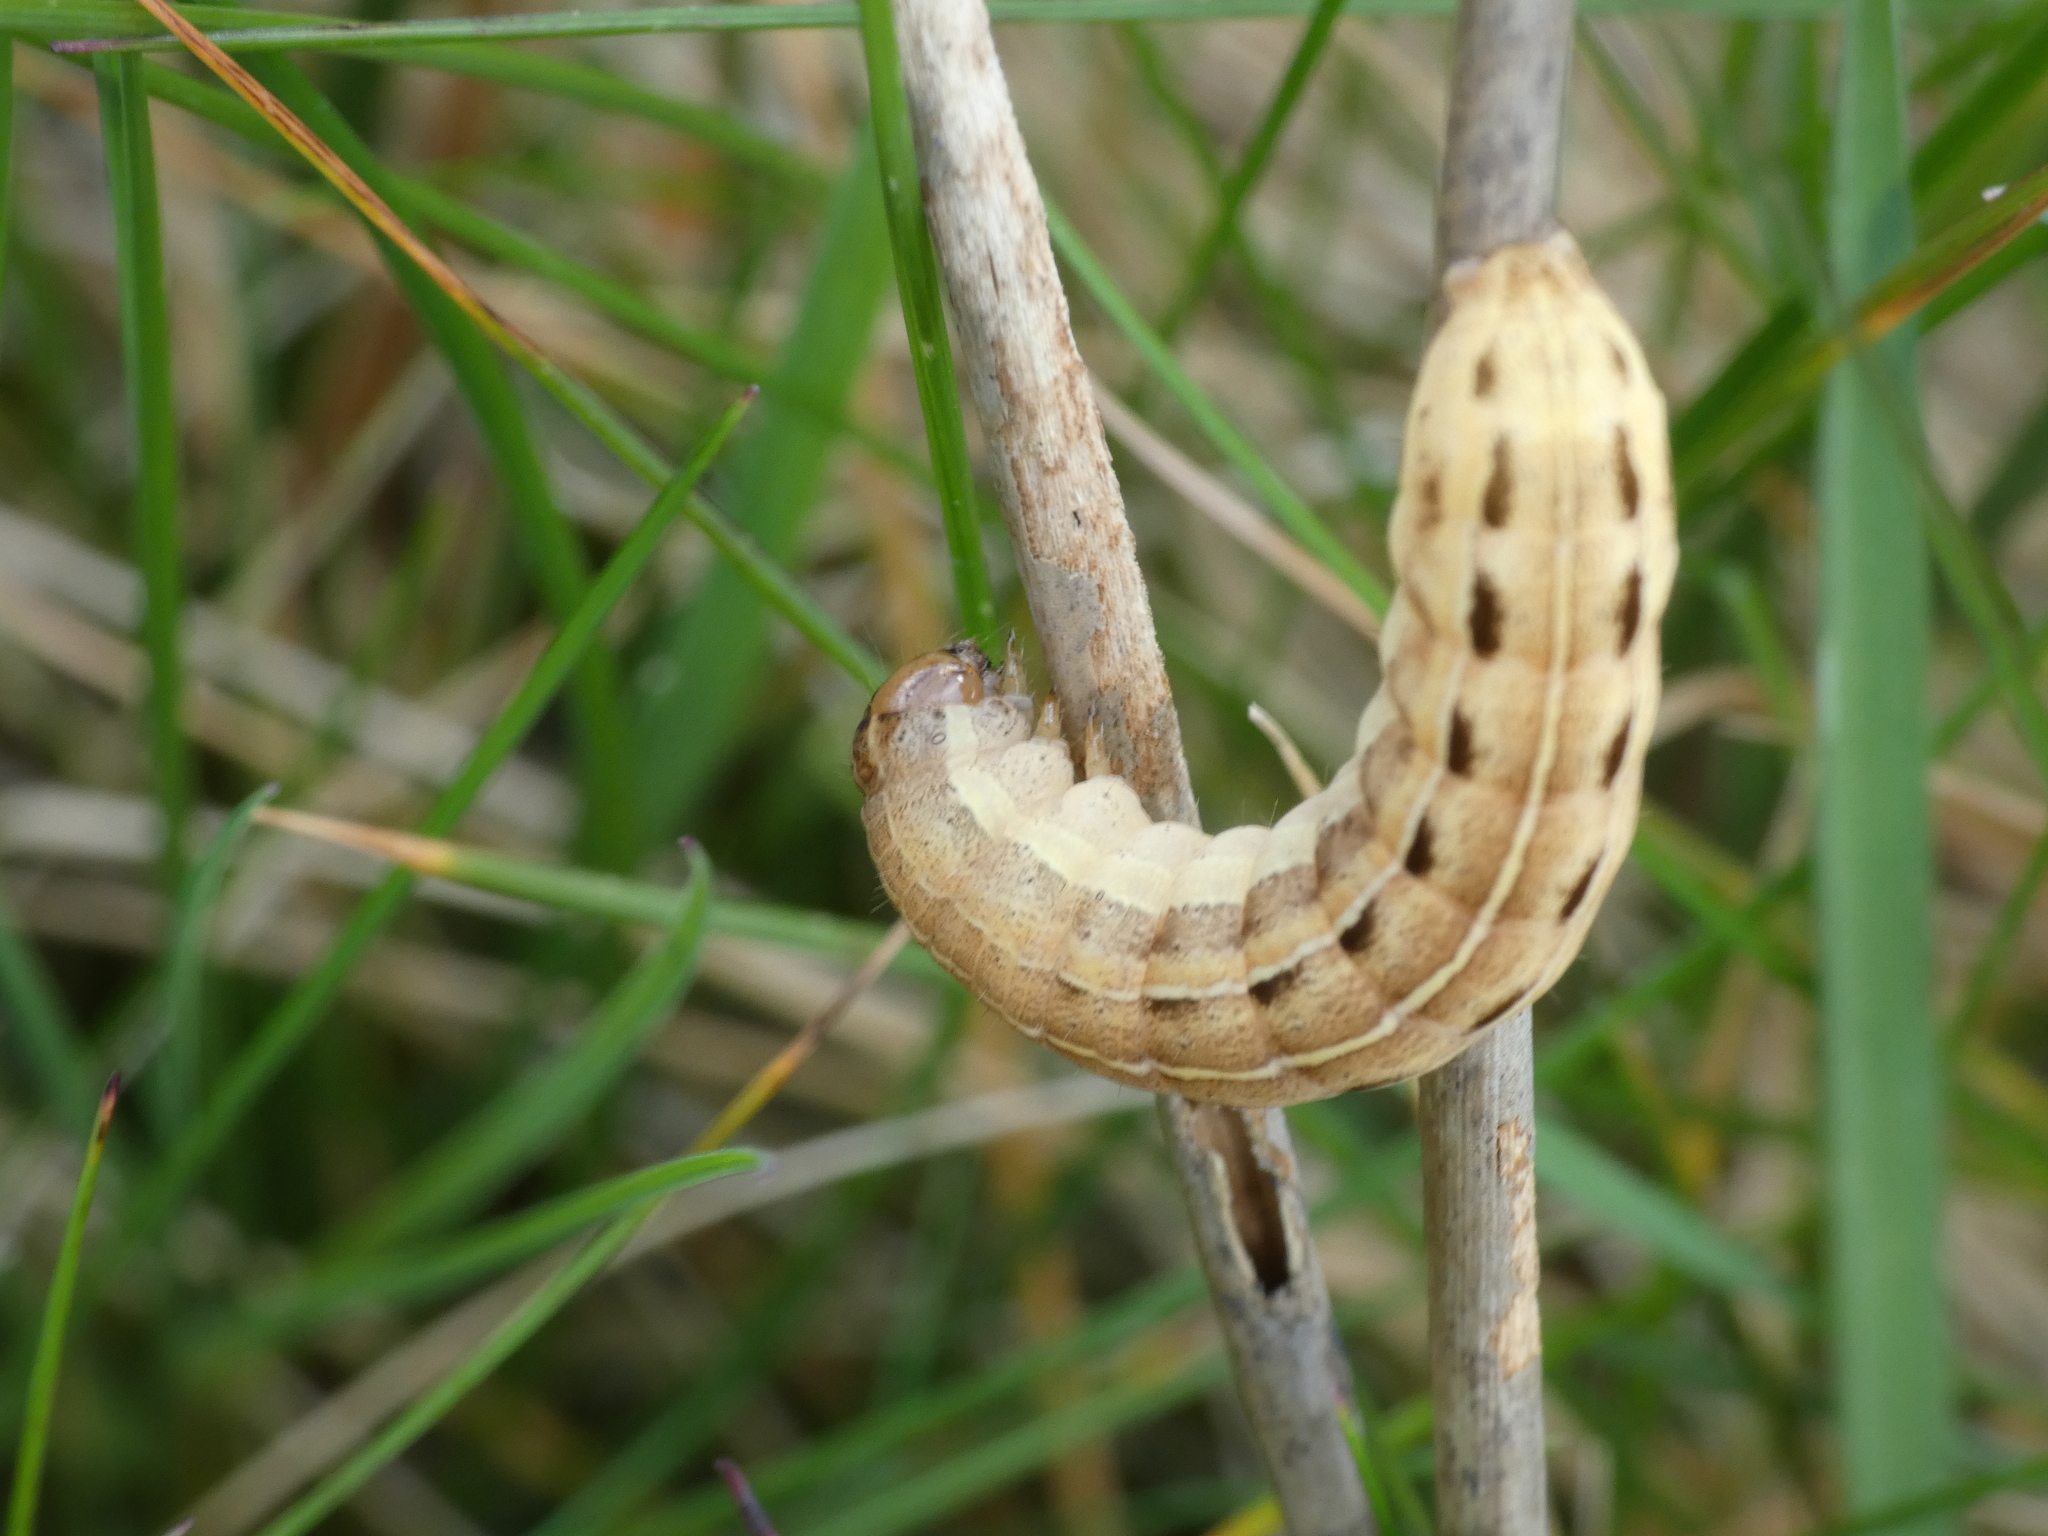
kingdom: Animalia
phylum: Arthropoda
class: Insecta
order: Lepidoptera
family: Noctuidae
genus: Xestia
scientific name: Xestia sexstrigata
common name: Six-striped rustic
